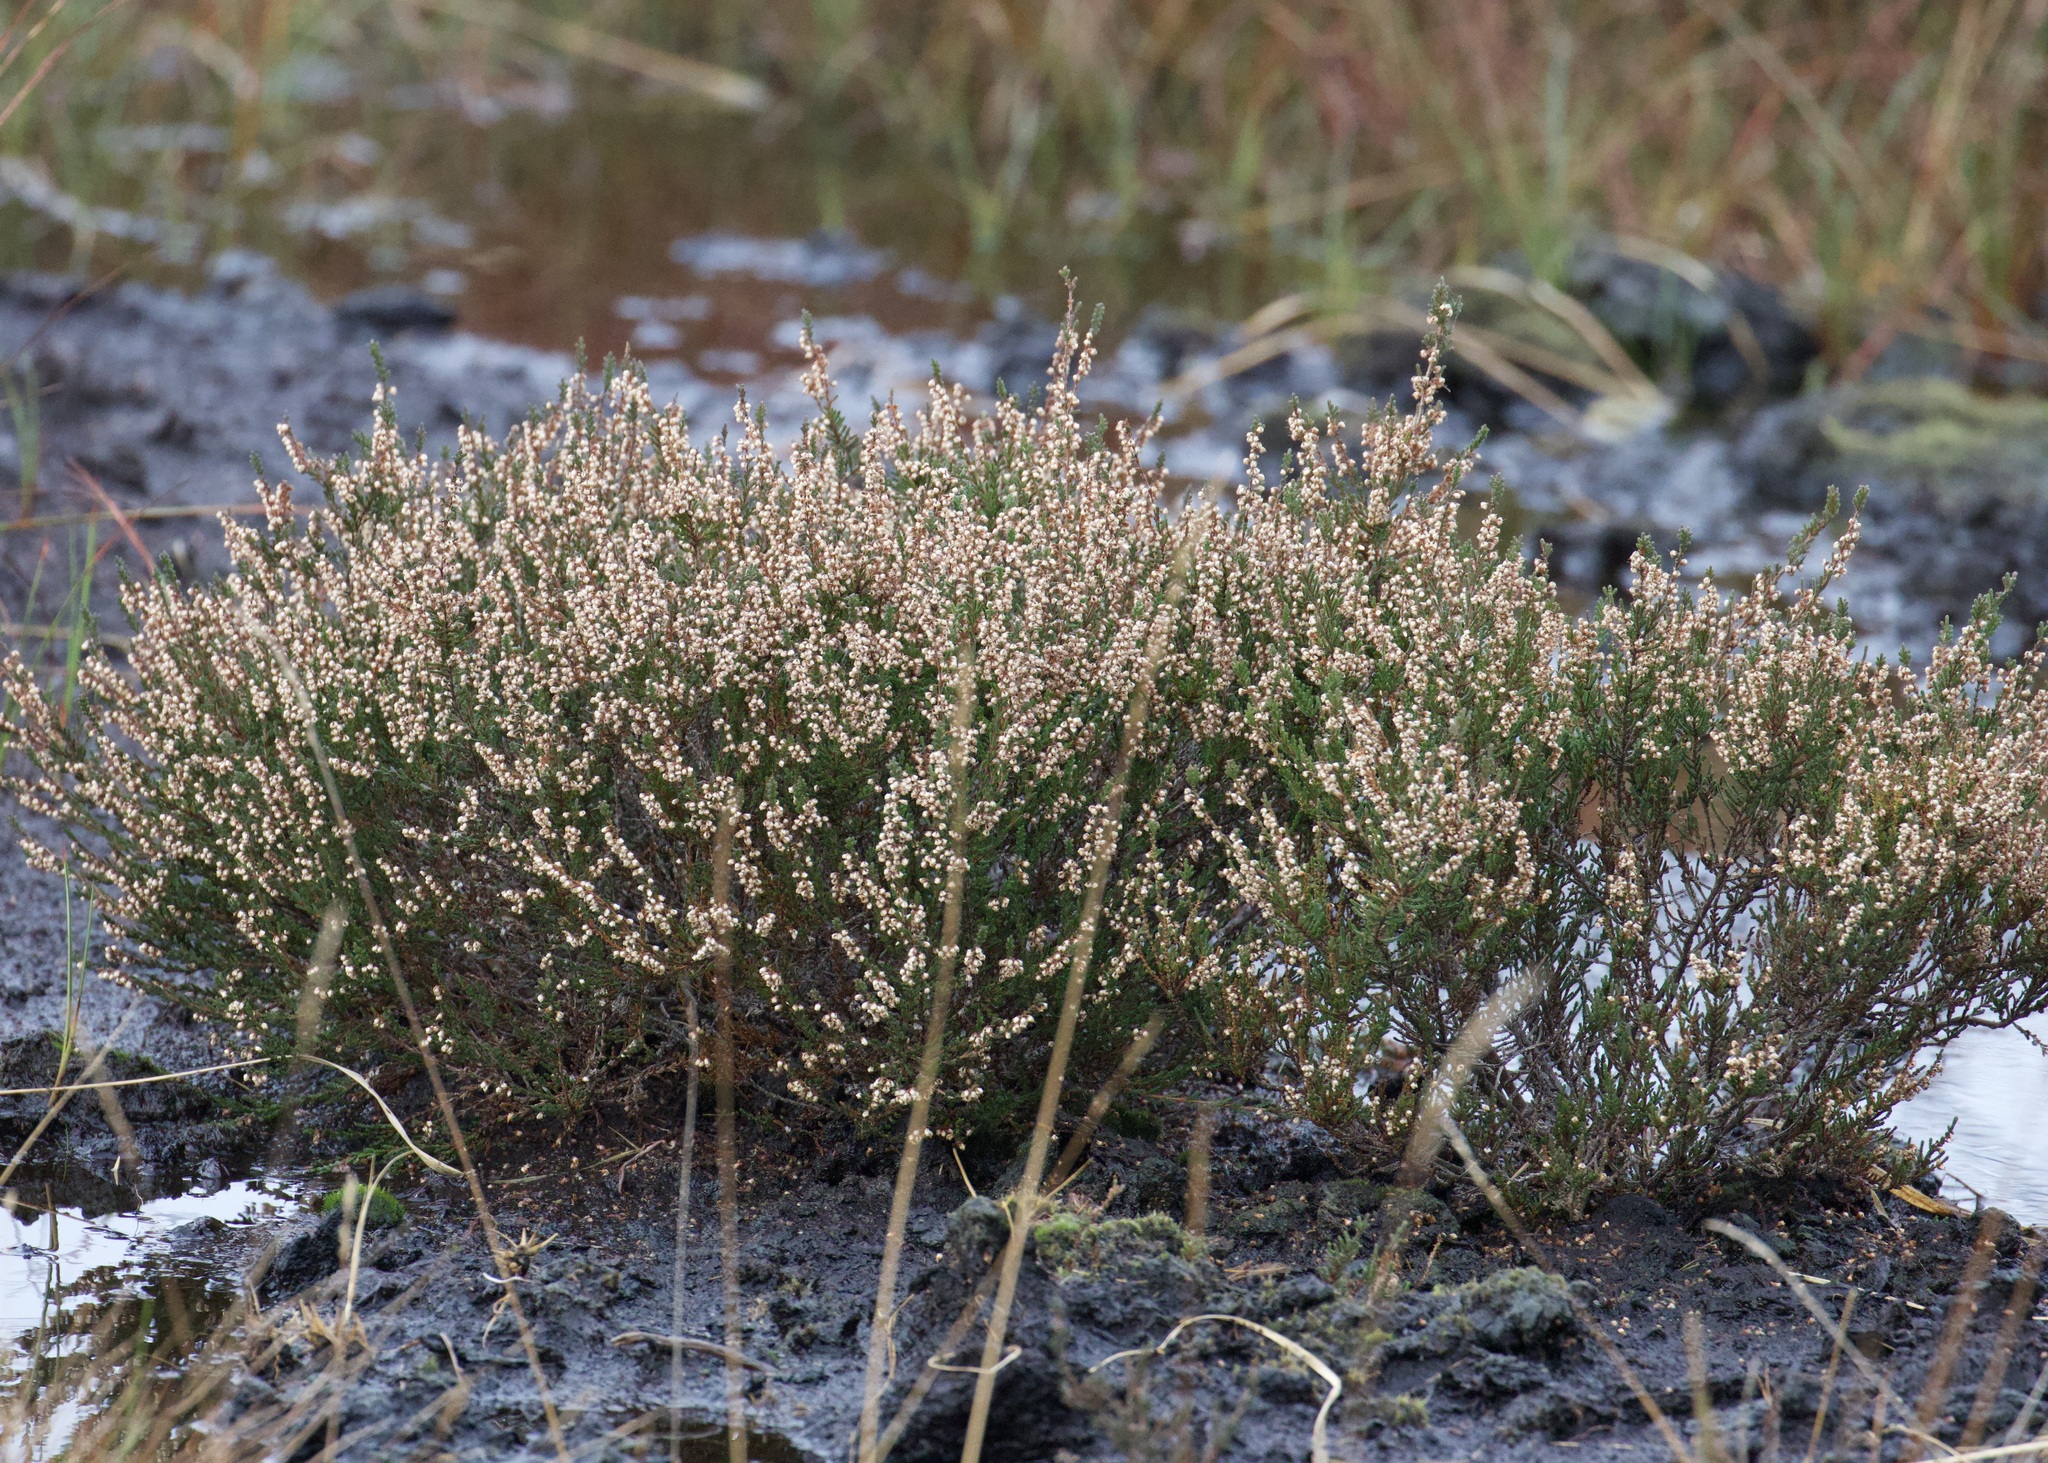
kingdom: Plantae
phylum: Tracheophyta
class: Magnoliopsida
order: Ericales
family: Ericaceae
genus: Calluna
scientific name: Calluna vulgaris
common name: Heather
